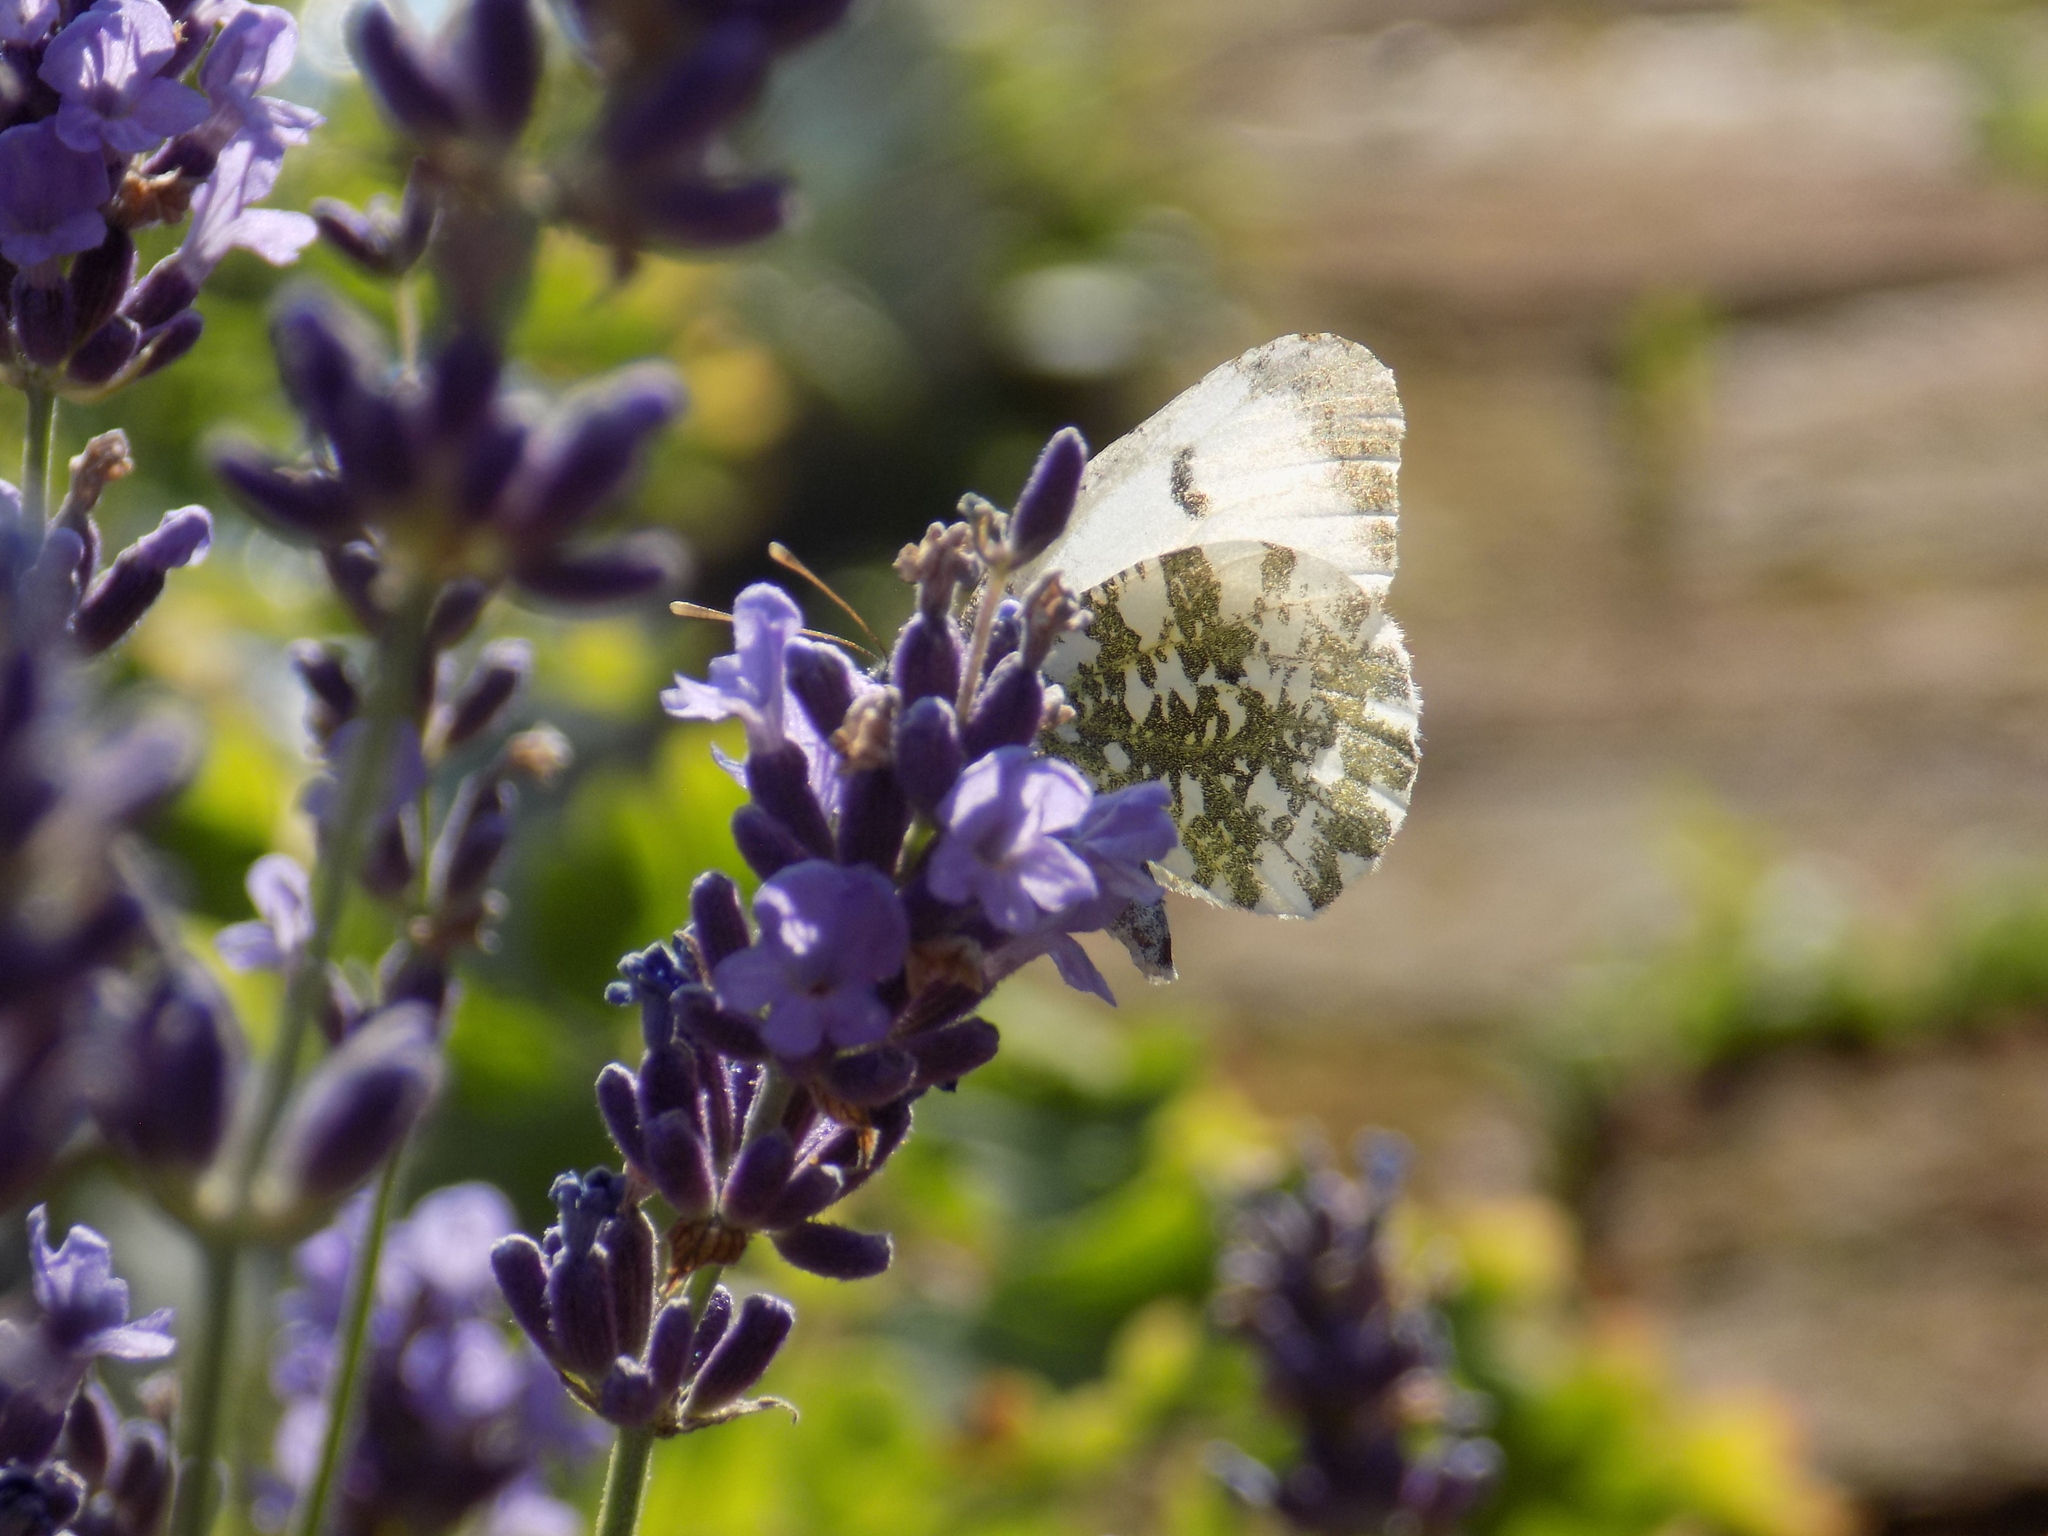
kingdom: Animalia
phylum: Arthropoda
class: Insecta
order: Lepidoptera
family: Pieridae
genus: Anthocharis
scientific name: Anthocharis cardamines
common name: Orange-tip
